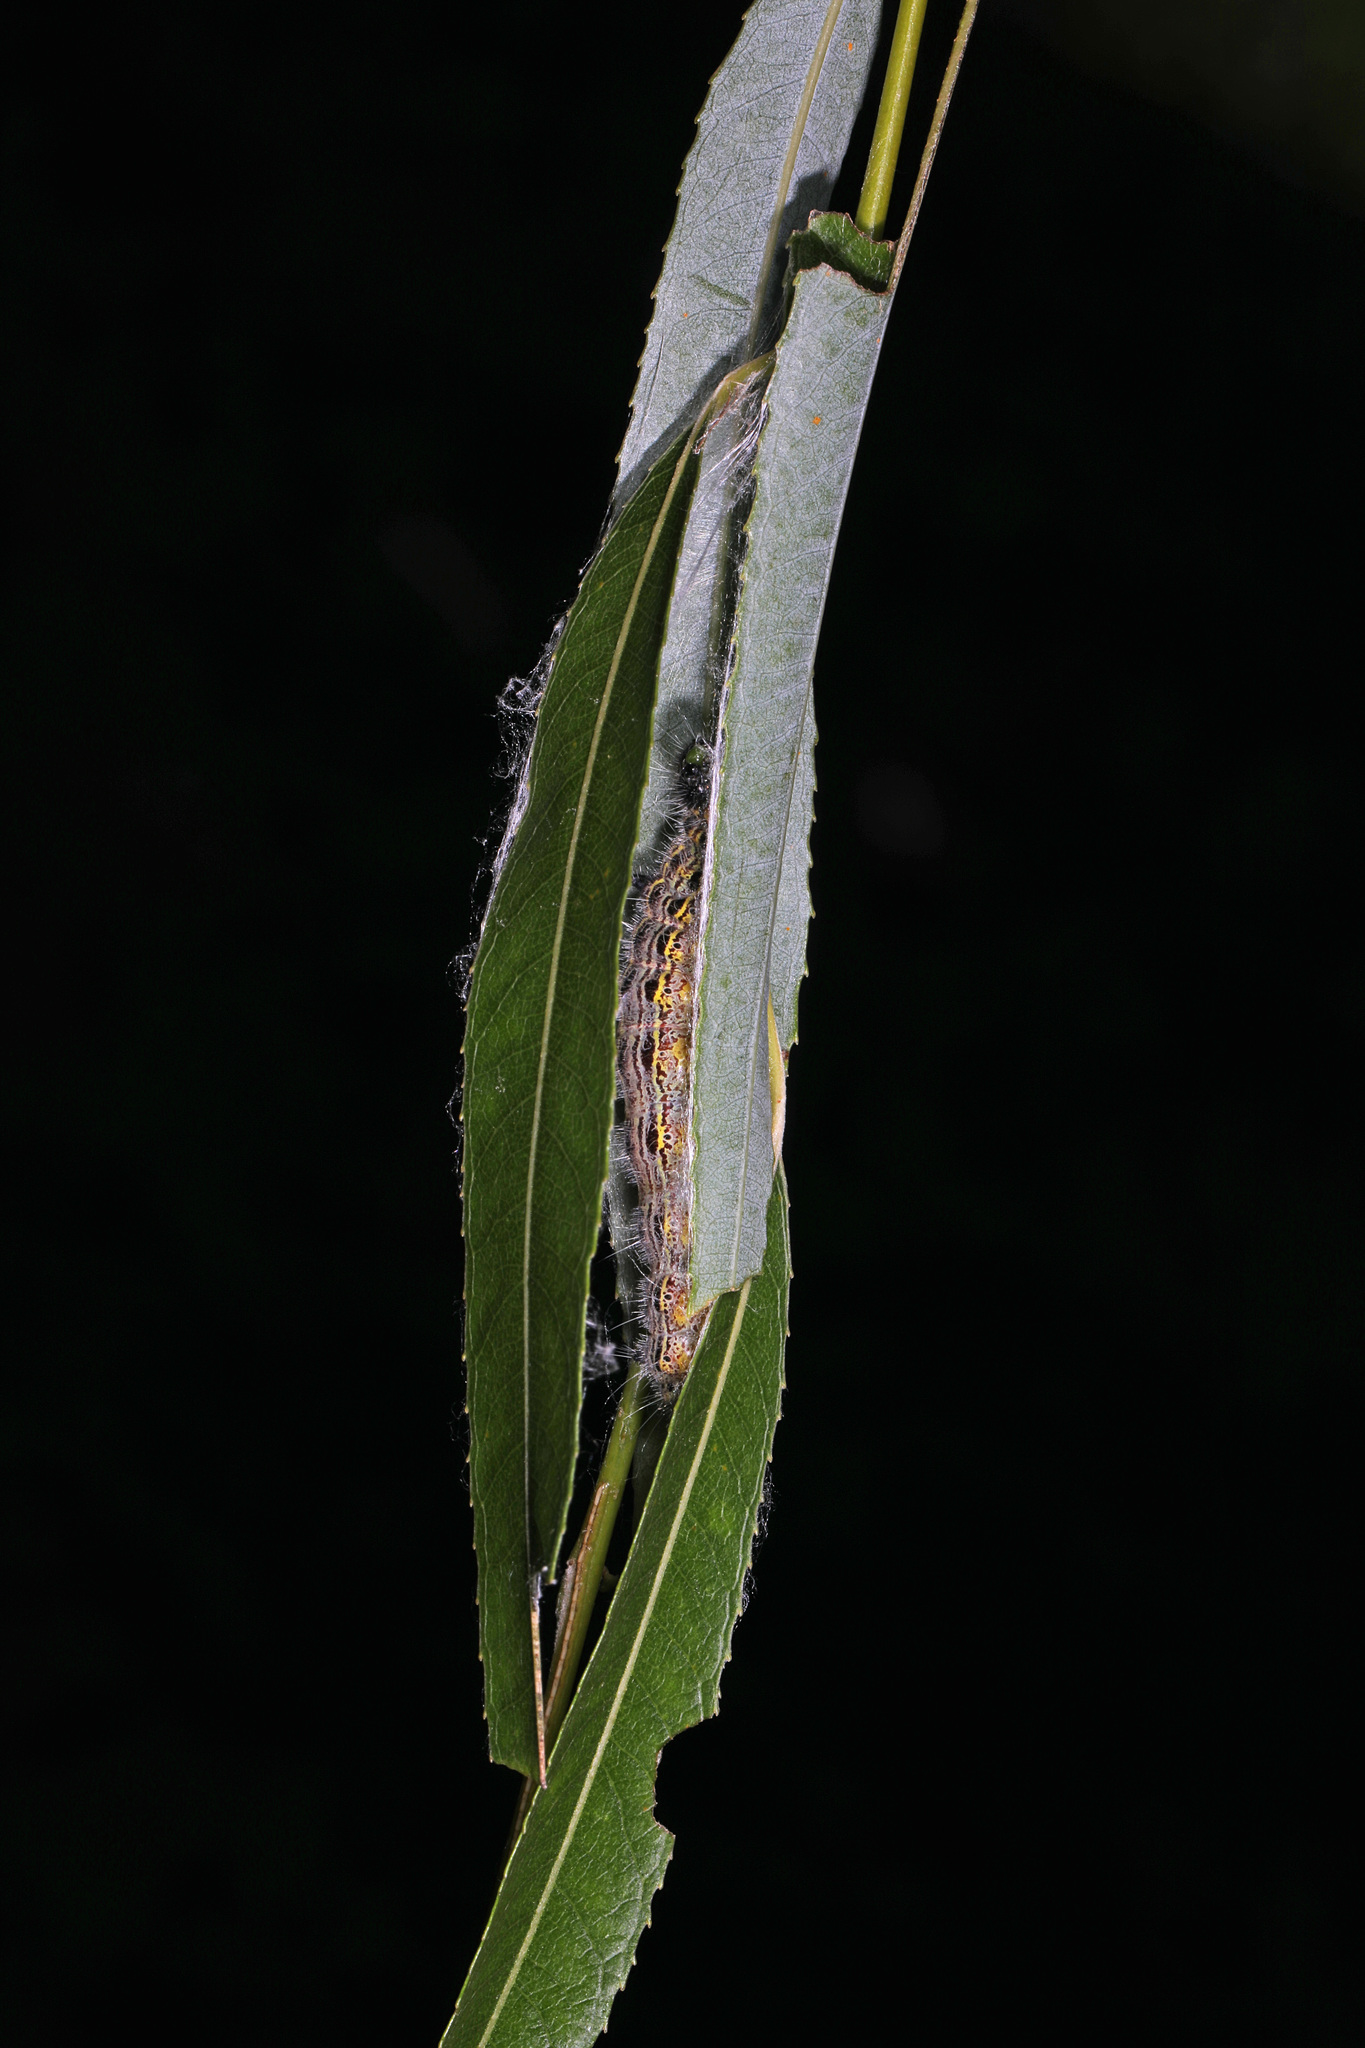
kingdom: Animalia
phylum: Arthropoda
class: Insecta
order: Lepidoptera
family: Notodontidae
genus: Clostera
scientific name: Clostera inclusa
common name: Angle-lined prominent
